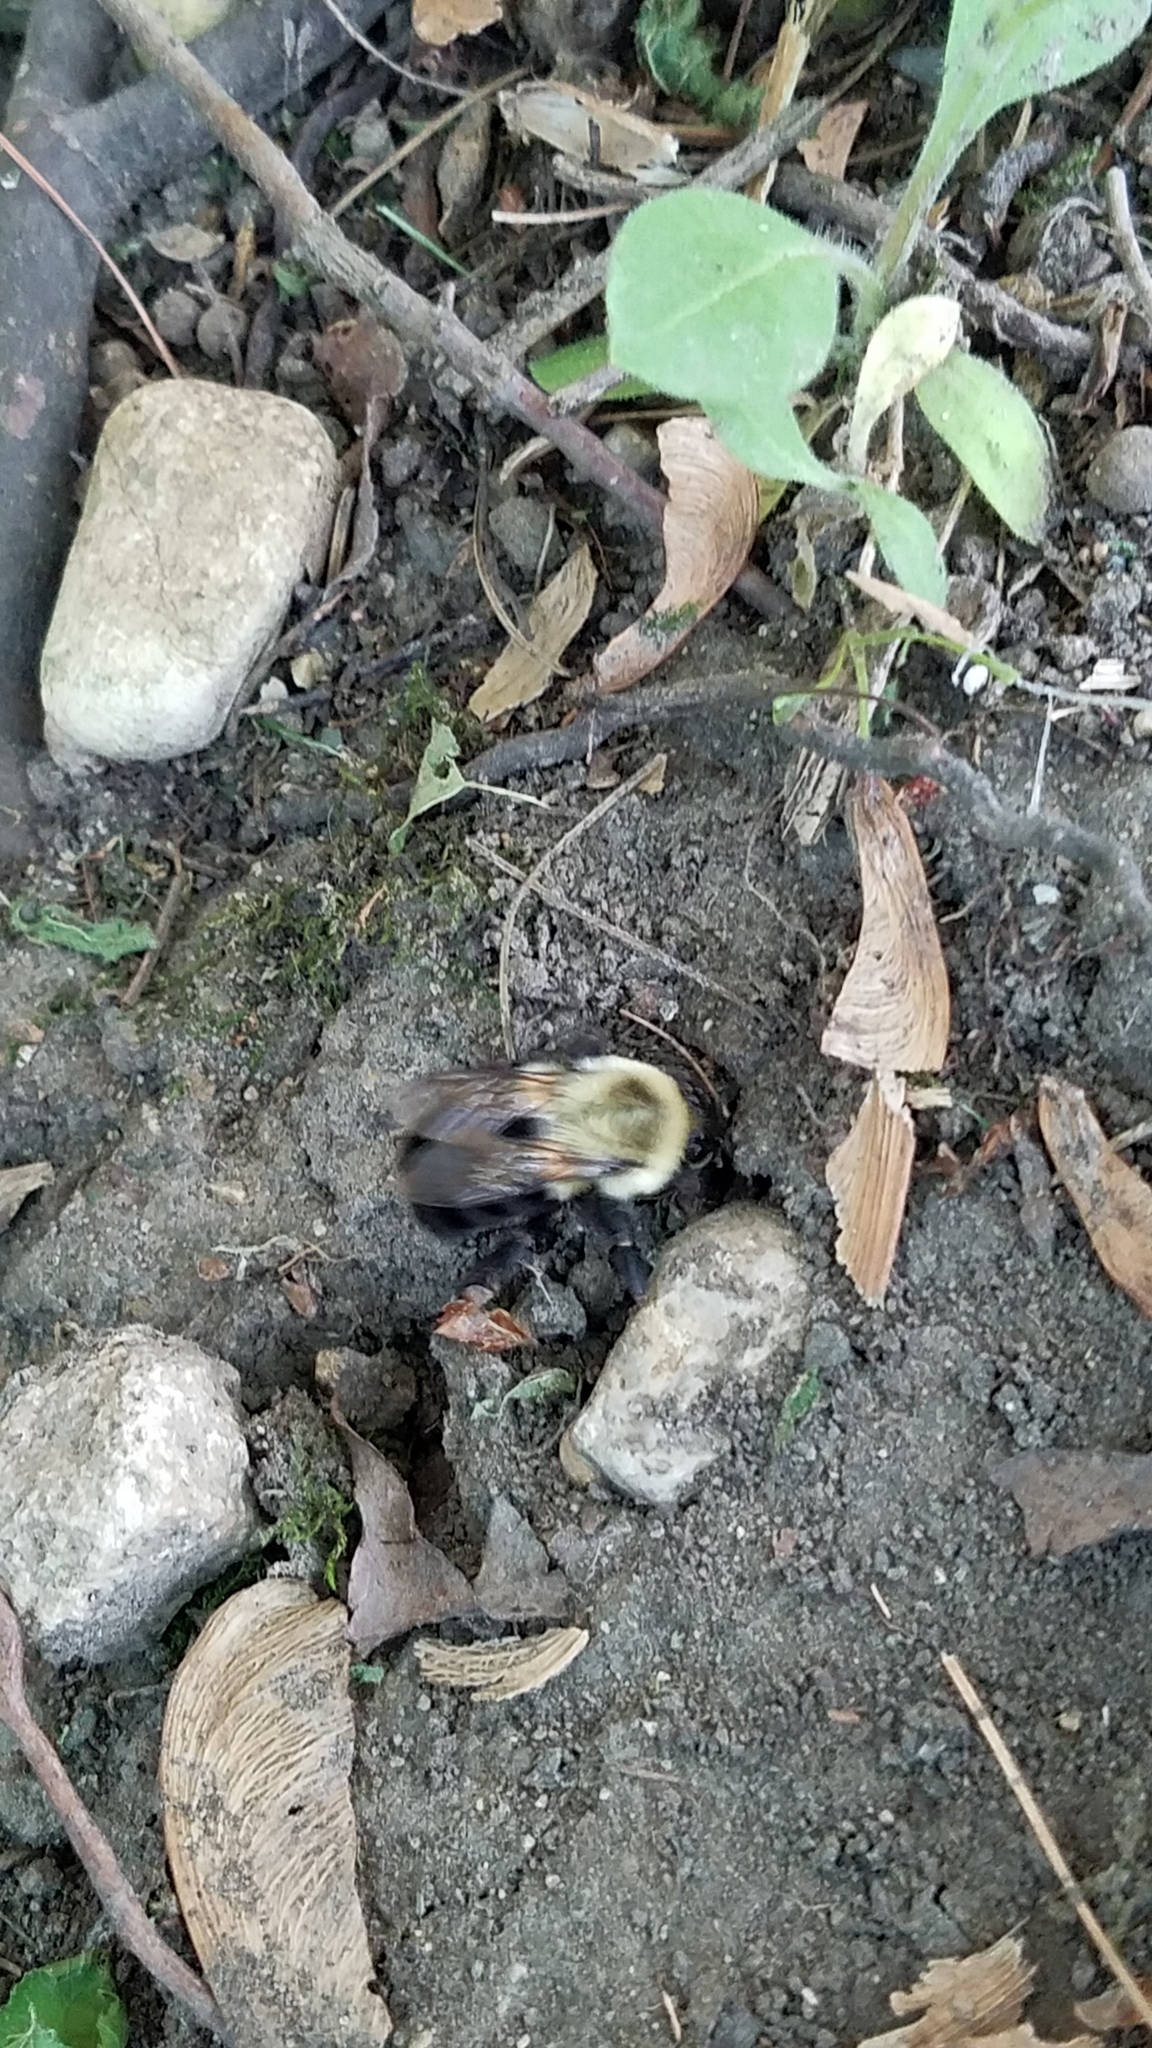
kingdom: Animalia
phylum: Arthropoda
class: Insecta
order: Hymenoptera
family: Apidae
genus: Bombus
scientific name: Bombus impatiens
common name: Common eastern bumble bee
